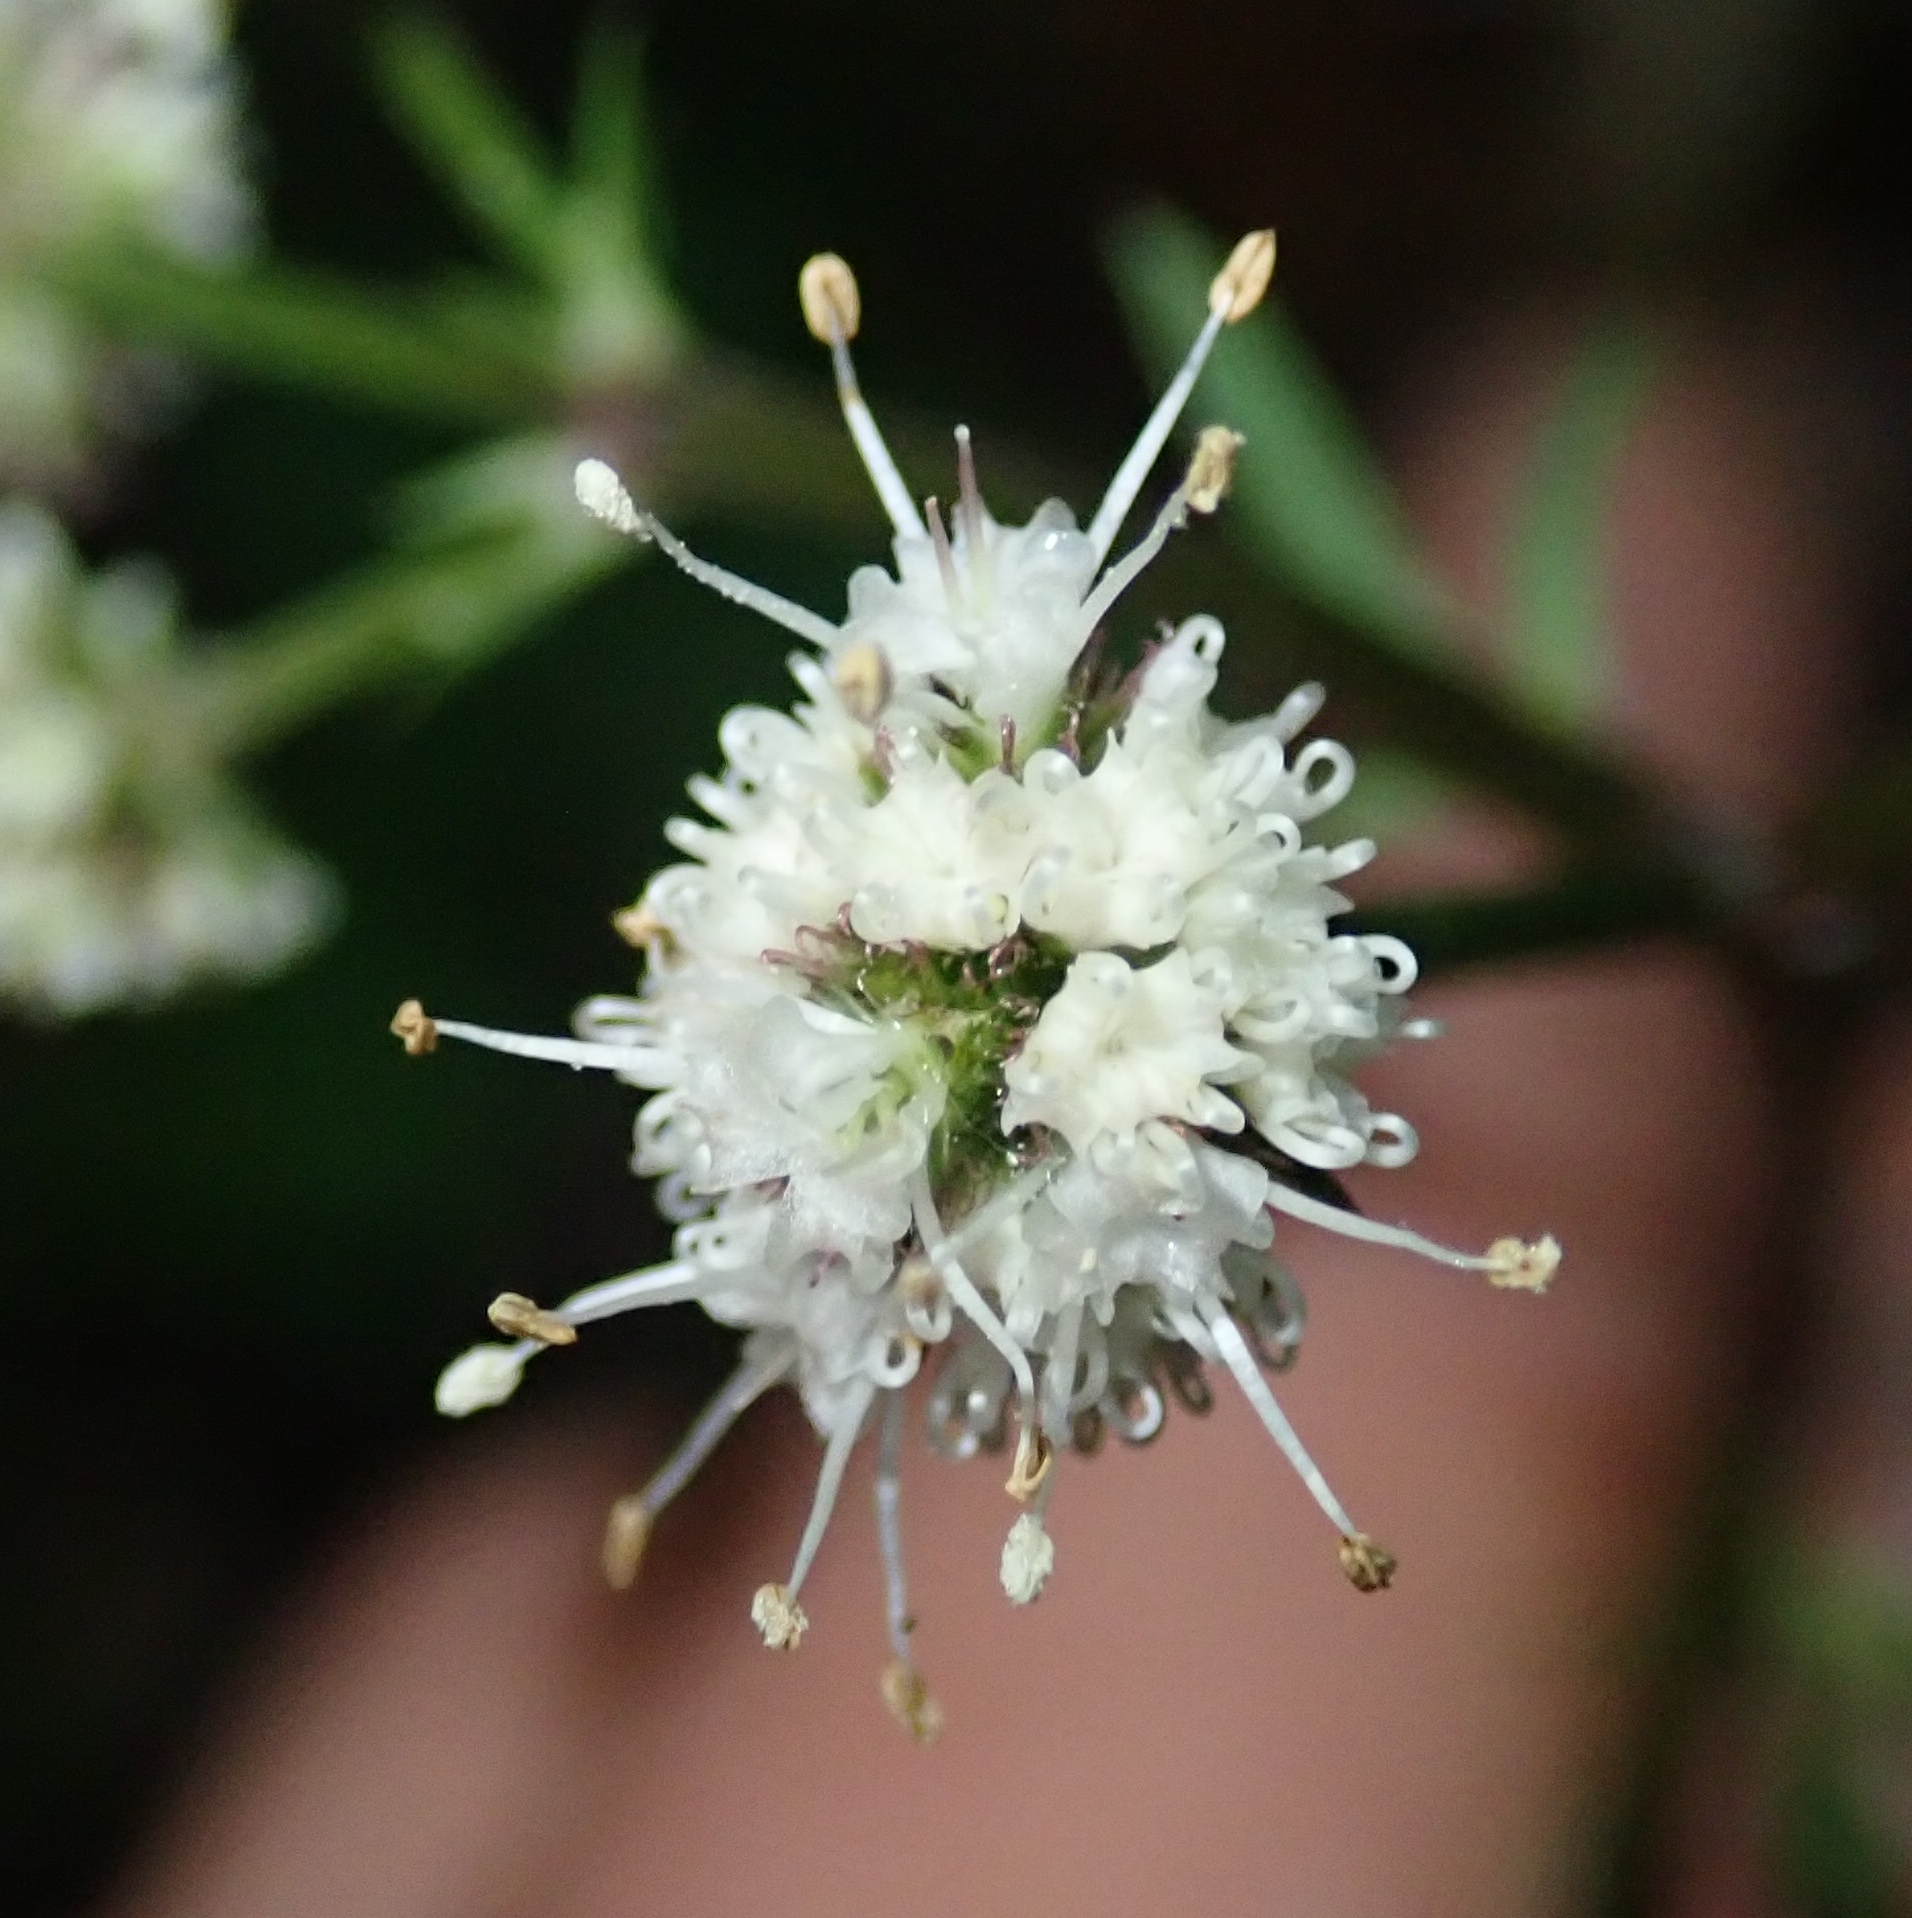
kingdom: Plantae
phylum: Tracheophyta
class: Magnoliopsida
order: Apiales
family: Apiaceae
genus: Sanicula
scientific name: Sanicula europaea
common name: Sanicle
